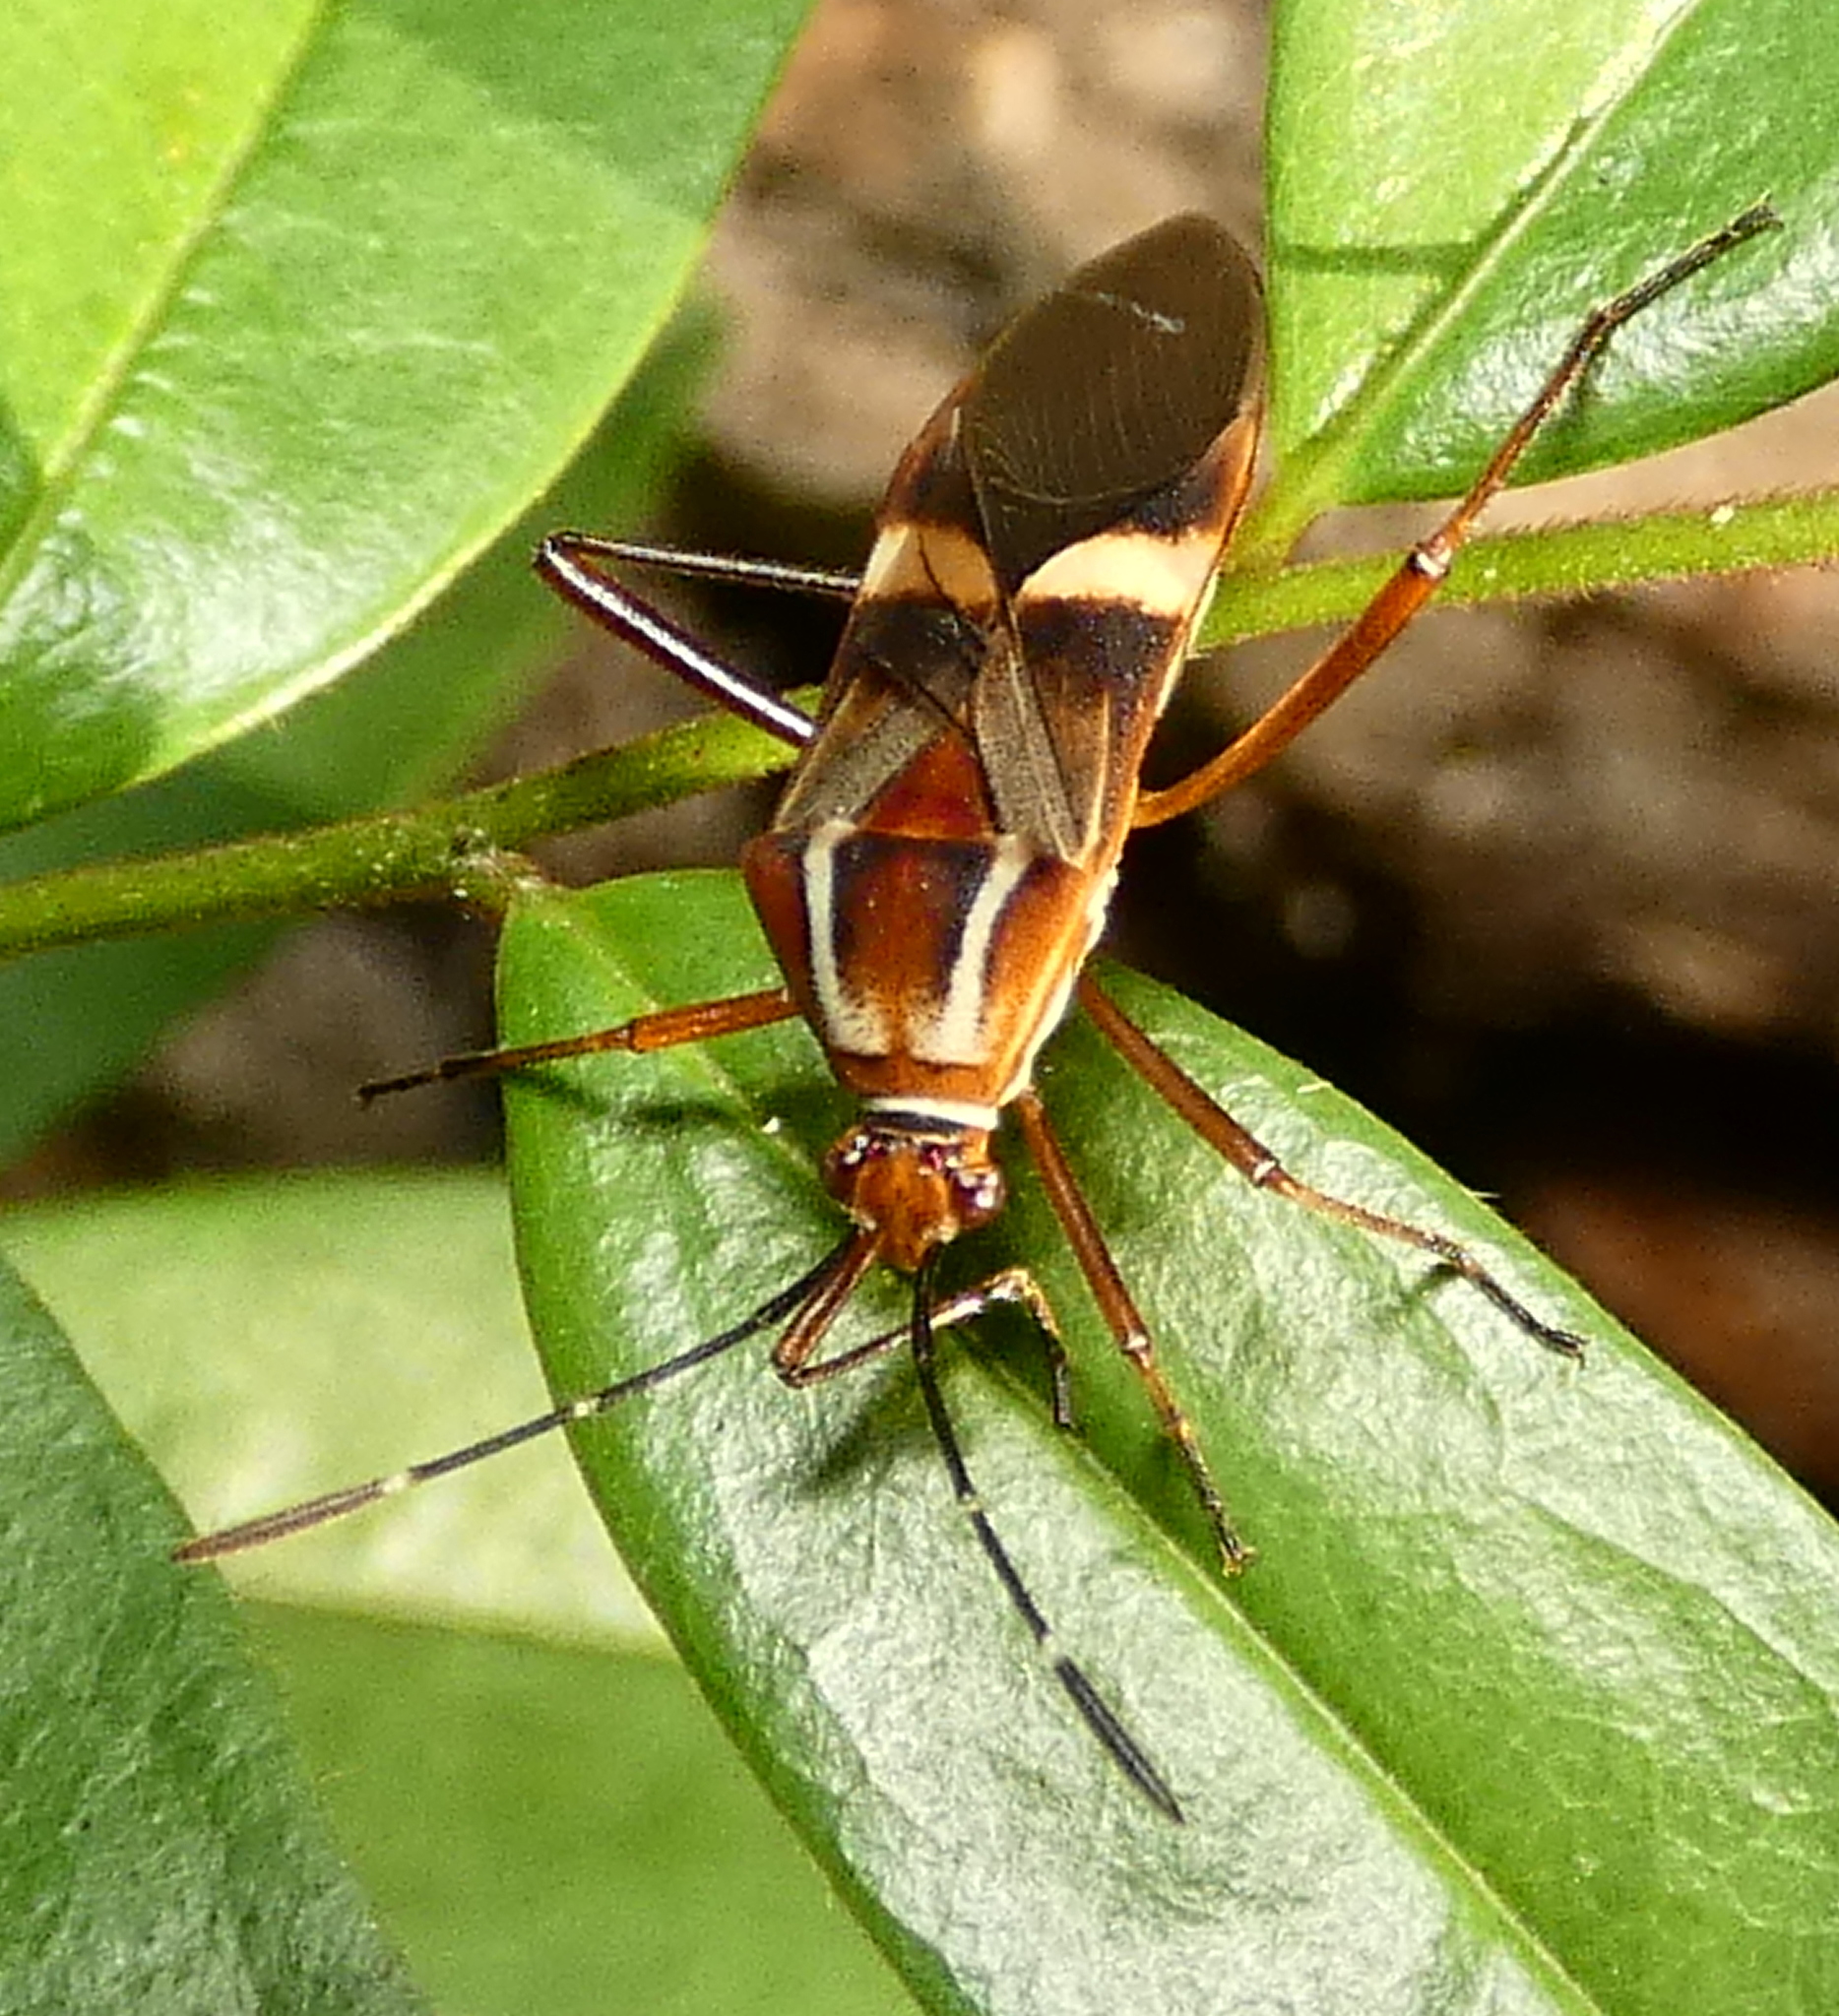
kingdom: Animalia
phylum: Arthropoda
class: Insecta
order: Hemiptera
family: Coreidae
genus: Hypselonotus
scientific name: Hypselonotus interruptus
